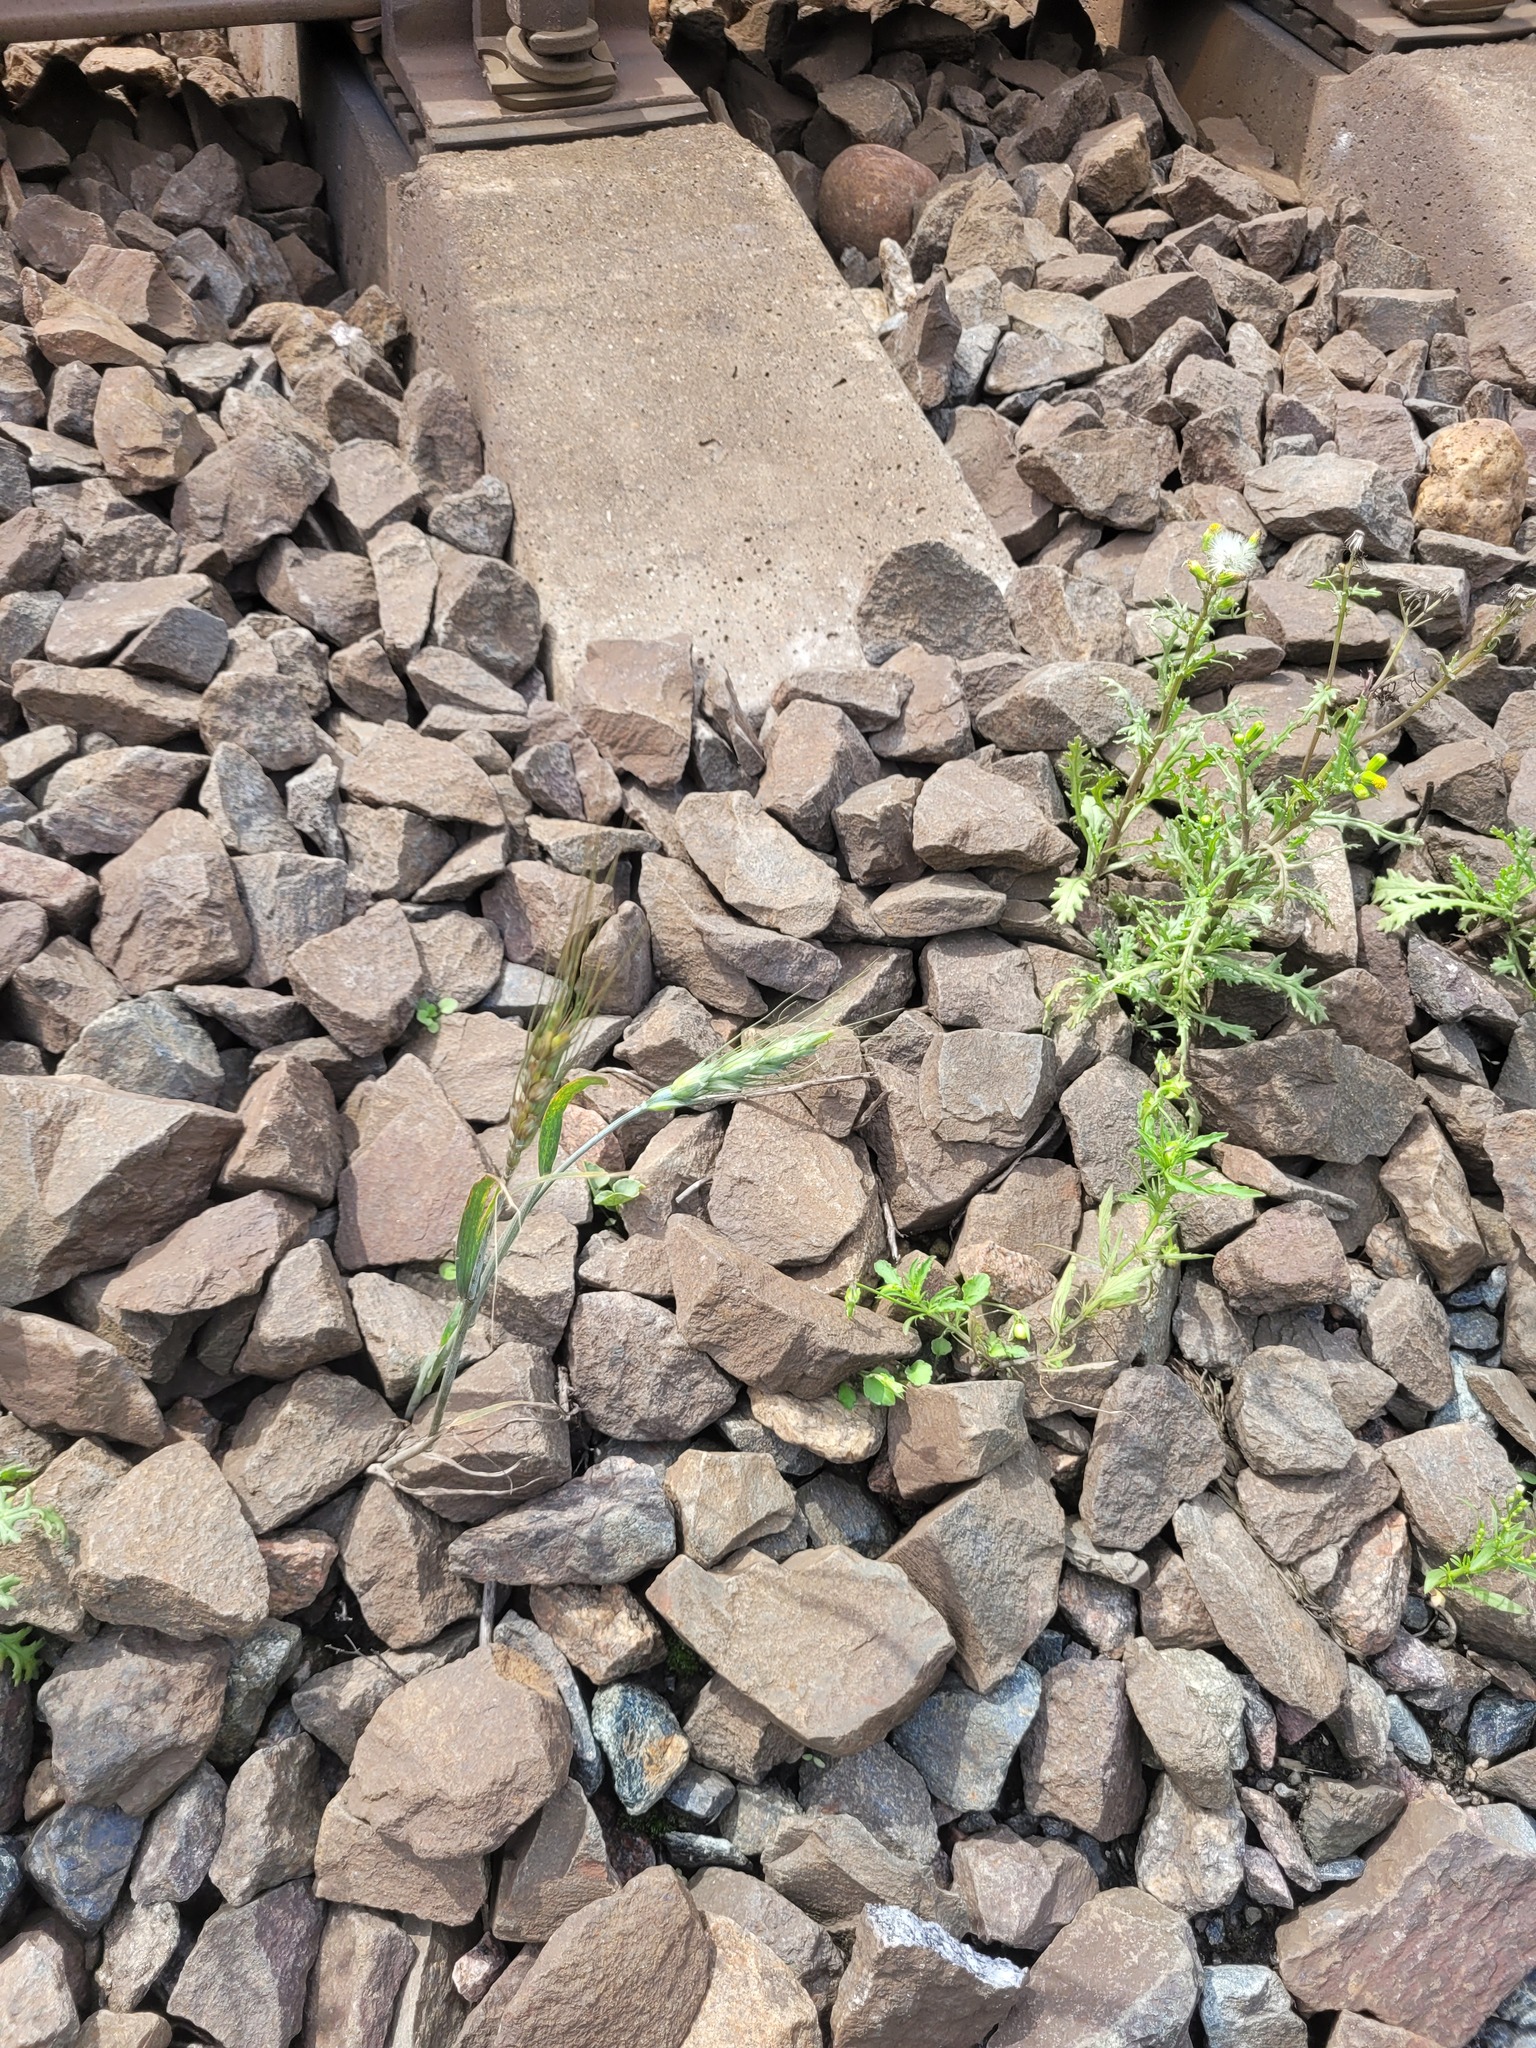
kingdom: Plantae
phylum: Tracheophyta
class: Liliopsida
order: Poales
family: Poaceae
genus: Triticum
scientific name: Triticum aestivum
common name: Common wheat
